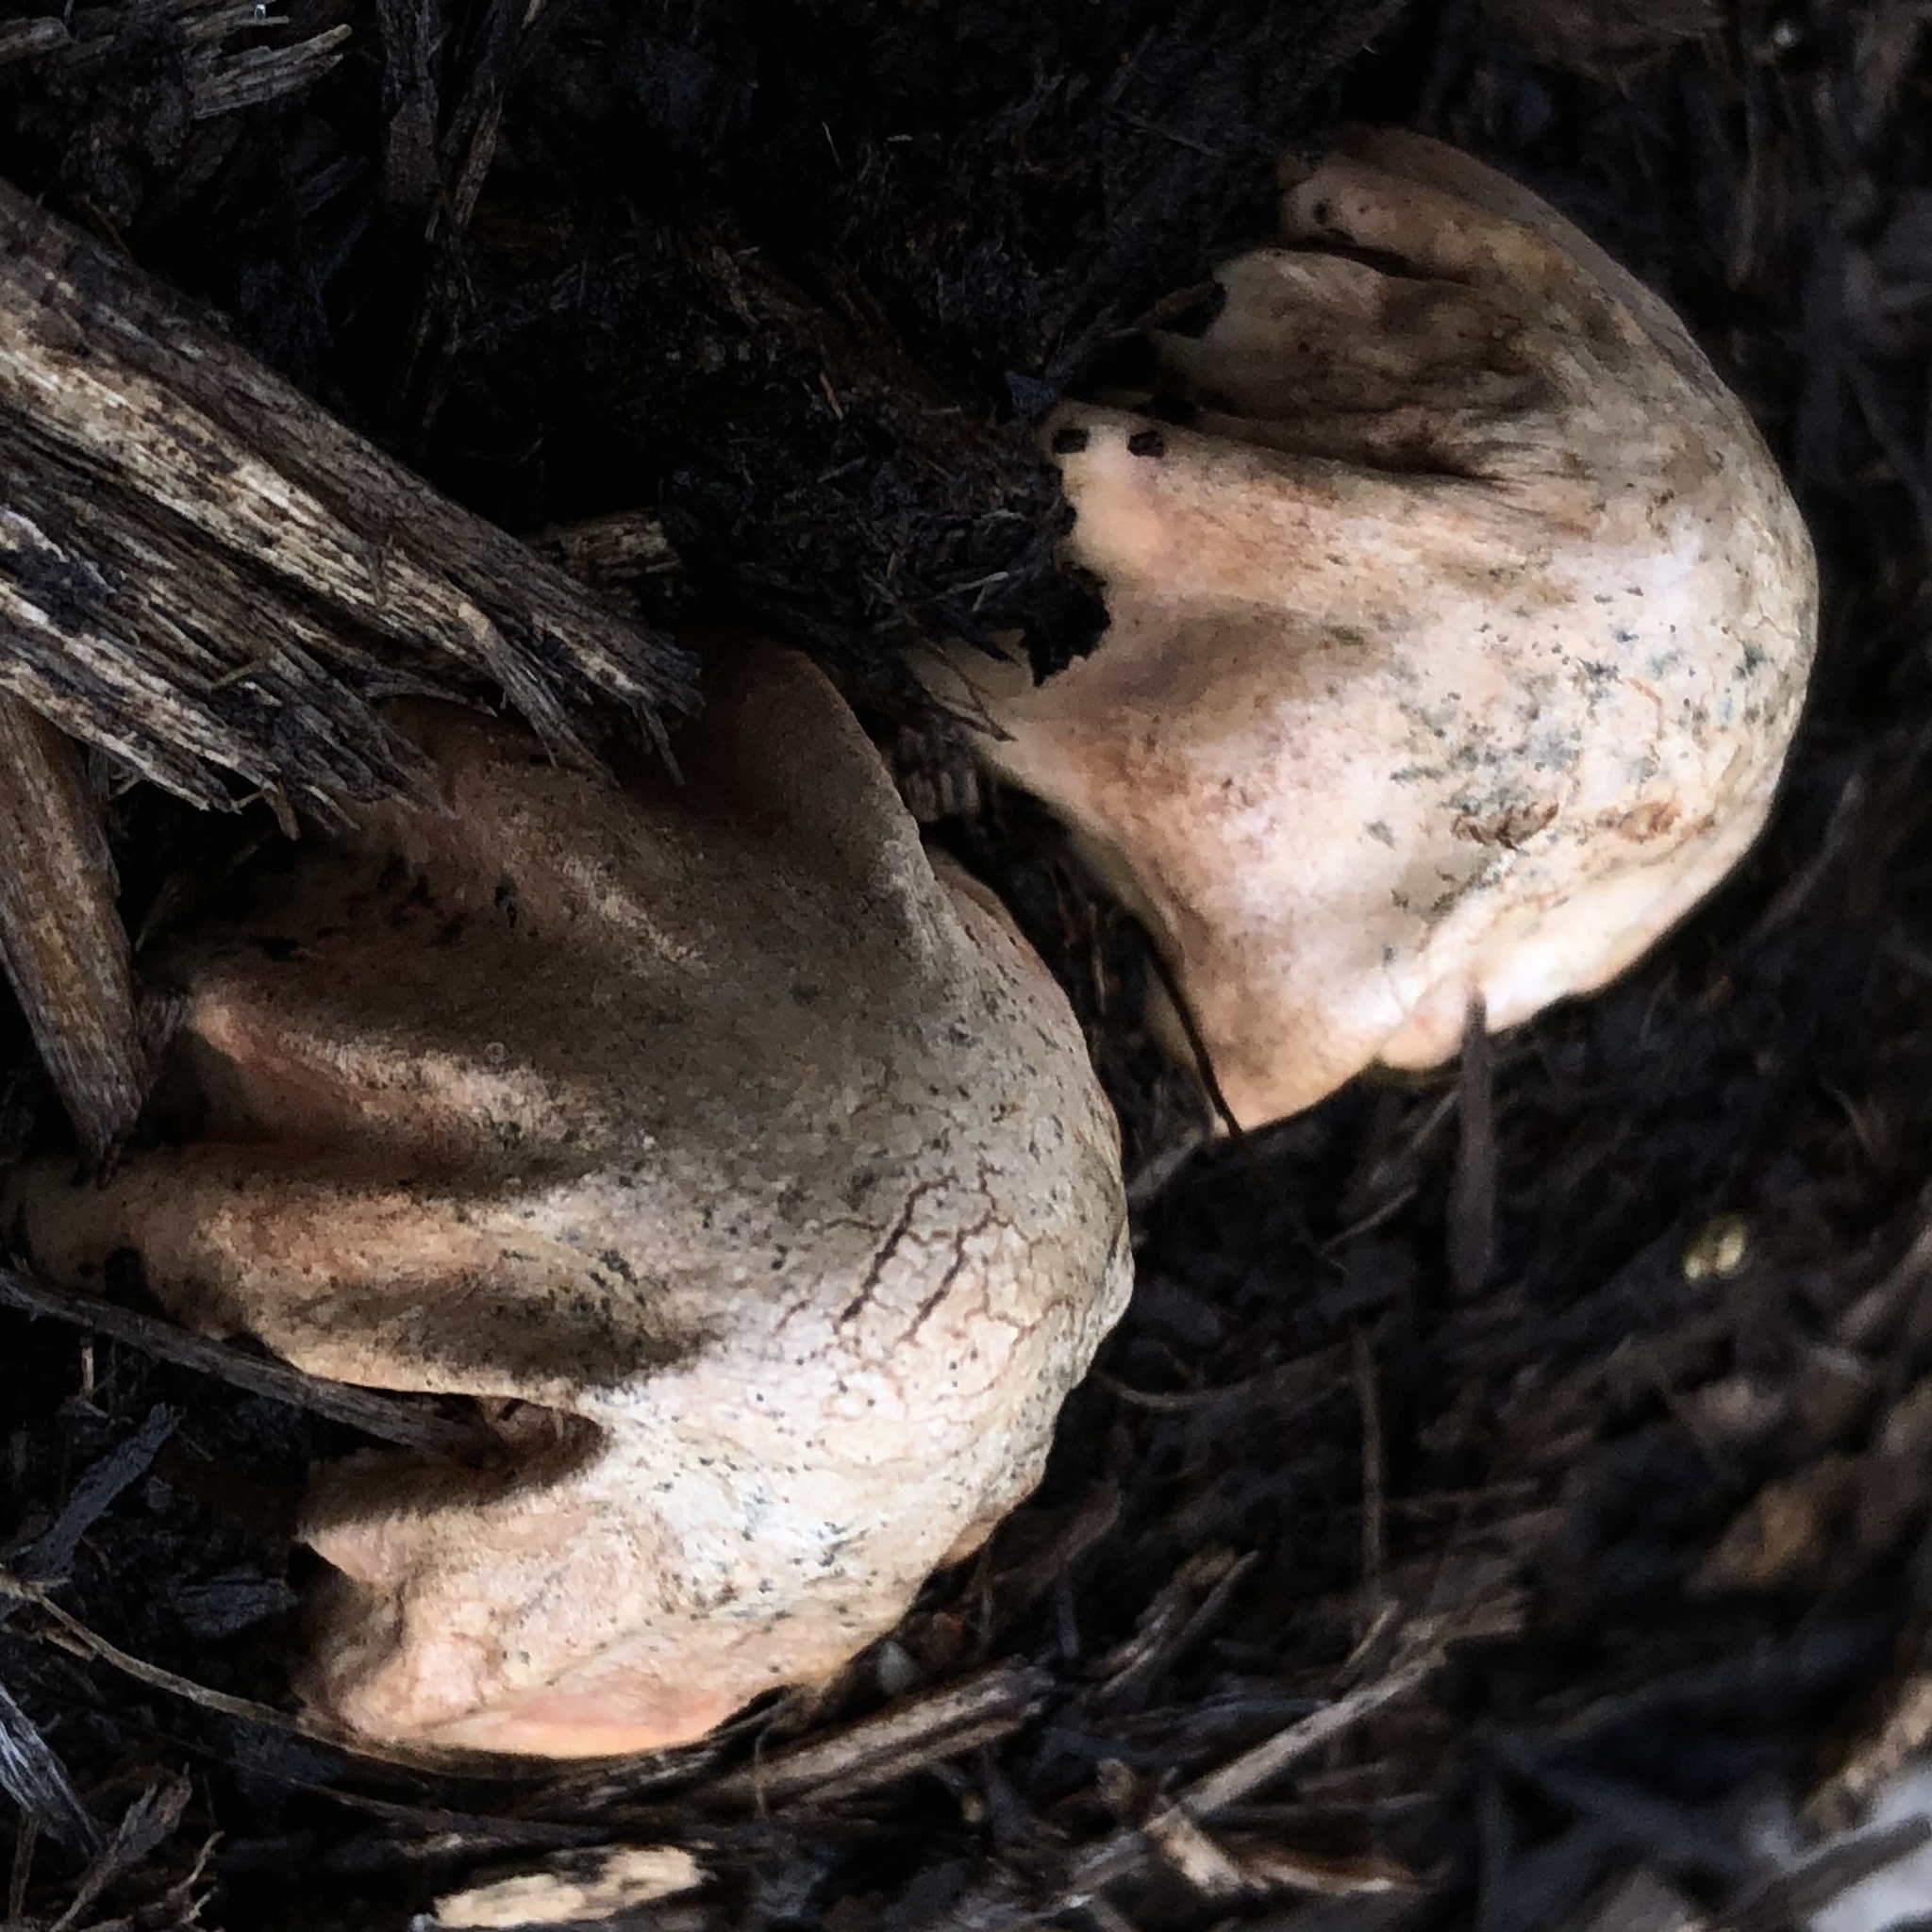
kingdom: Fungi
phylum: Basidiomycota
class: Agaricomycetes
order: Phallales
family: Phallaceae
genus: Mutinus
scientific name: Mutinus elegans
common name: Devil's dipstick
